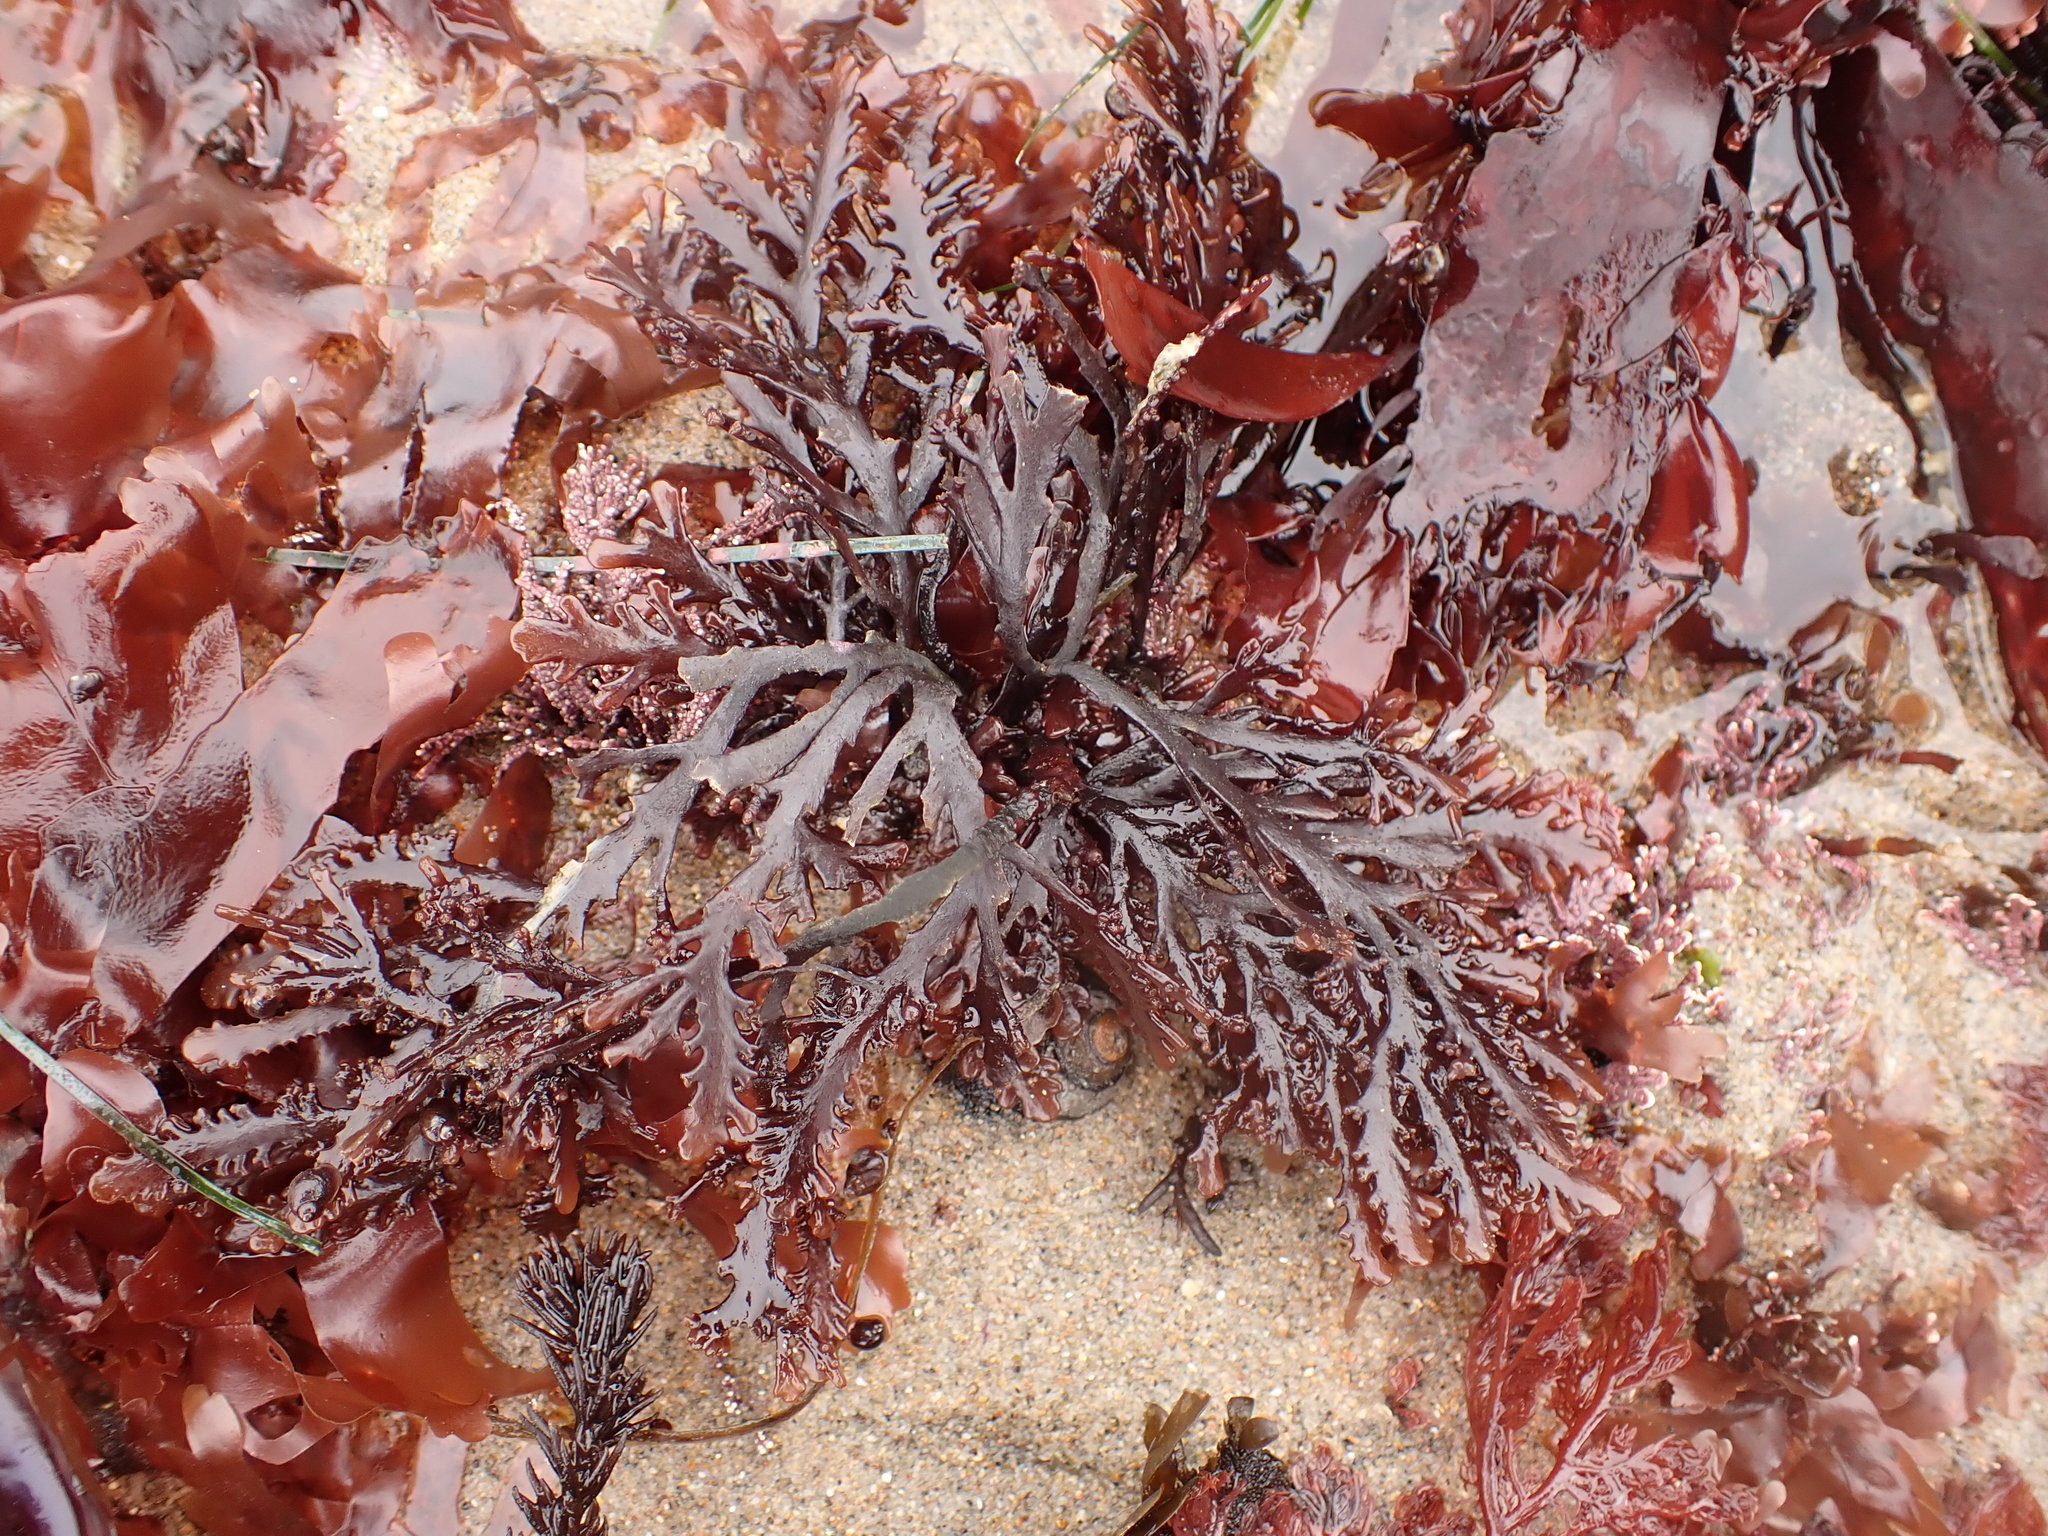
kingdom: Plantae
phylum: Rhodophyta
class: Florideophyceae
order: Ceramiales
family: Rhodomelaceae
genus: Osmundea
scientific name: Osmundea spectabilis
